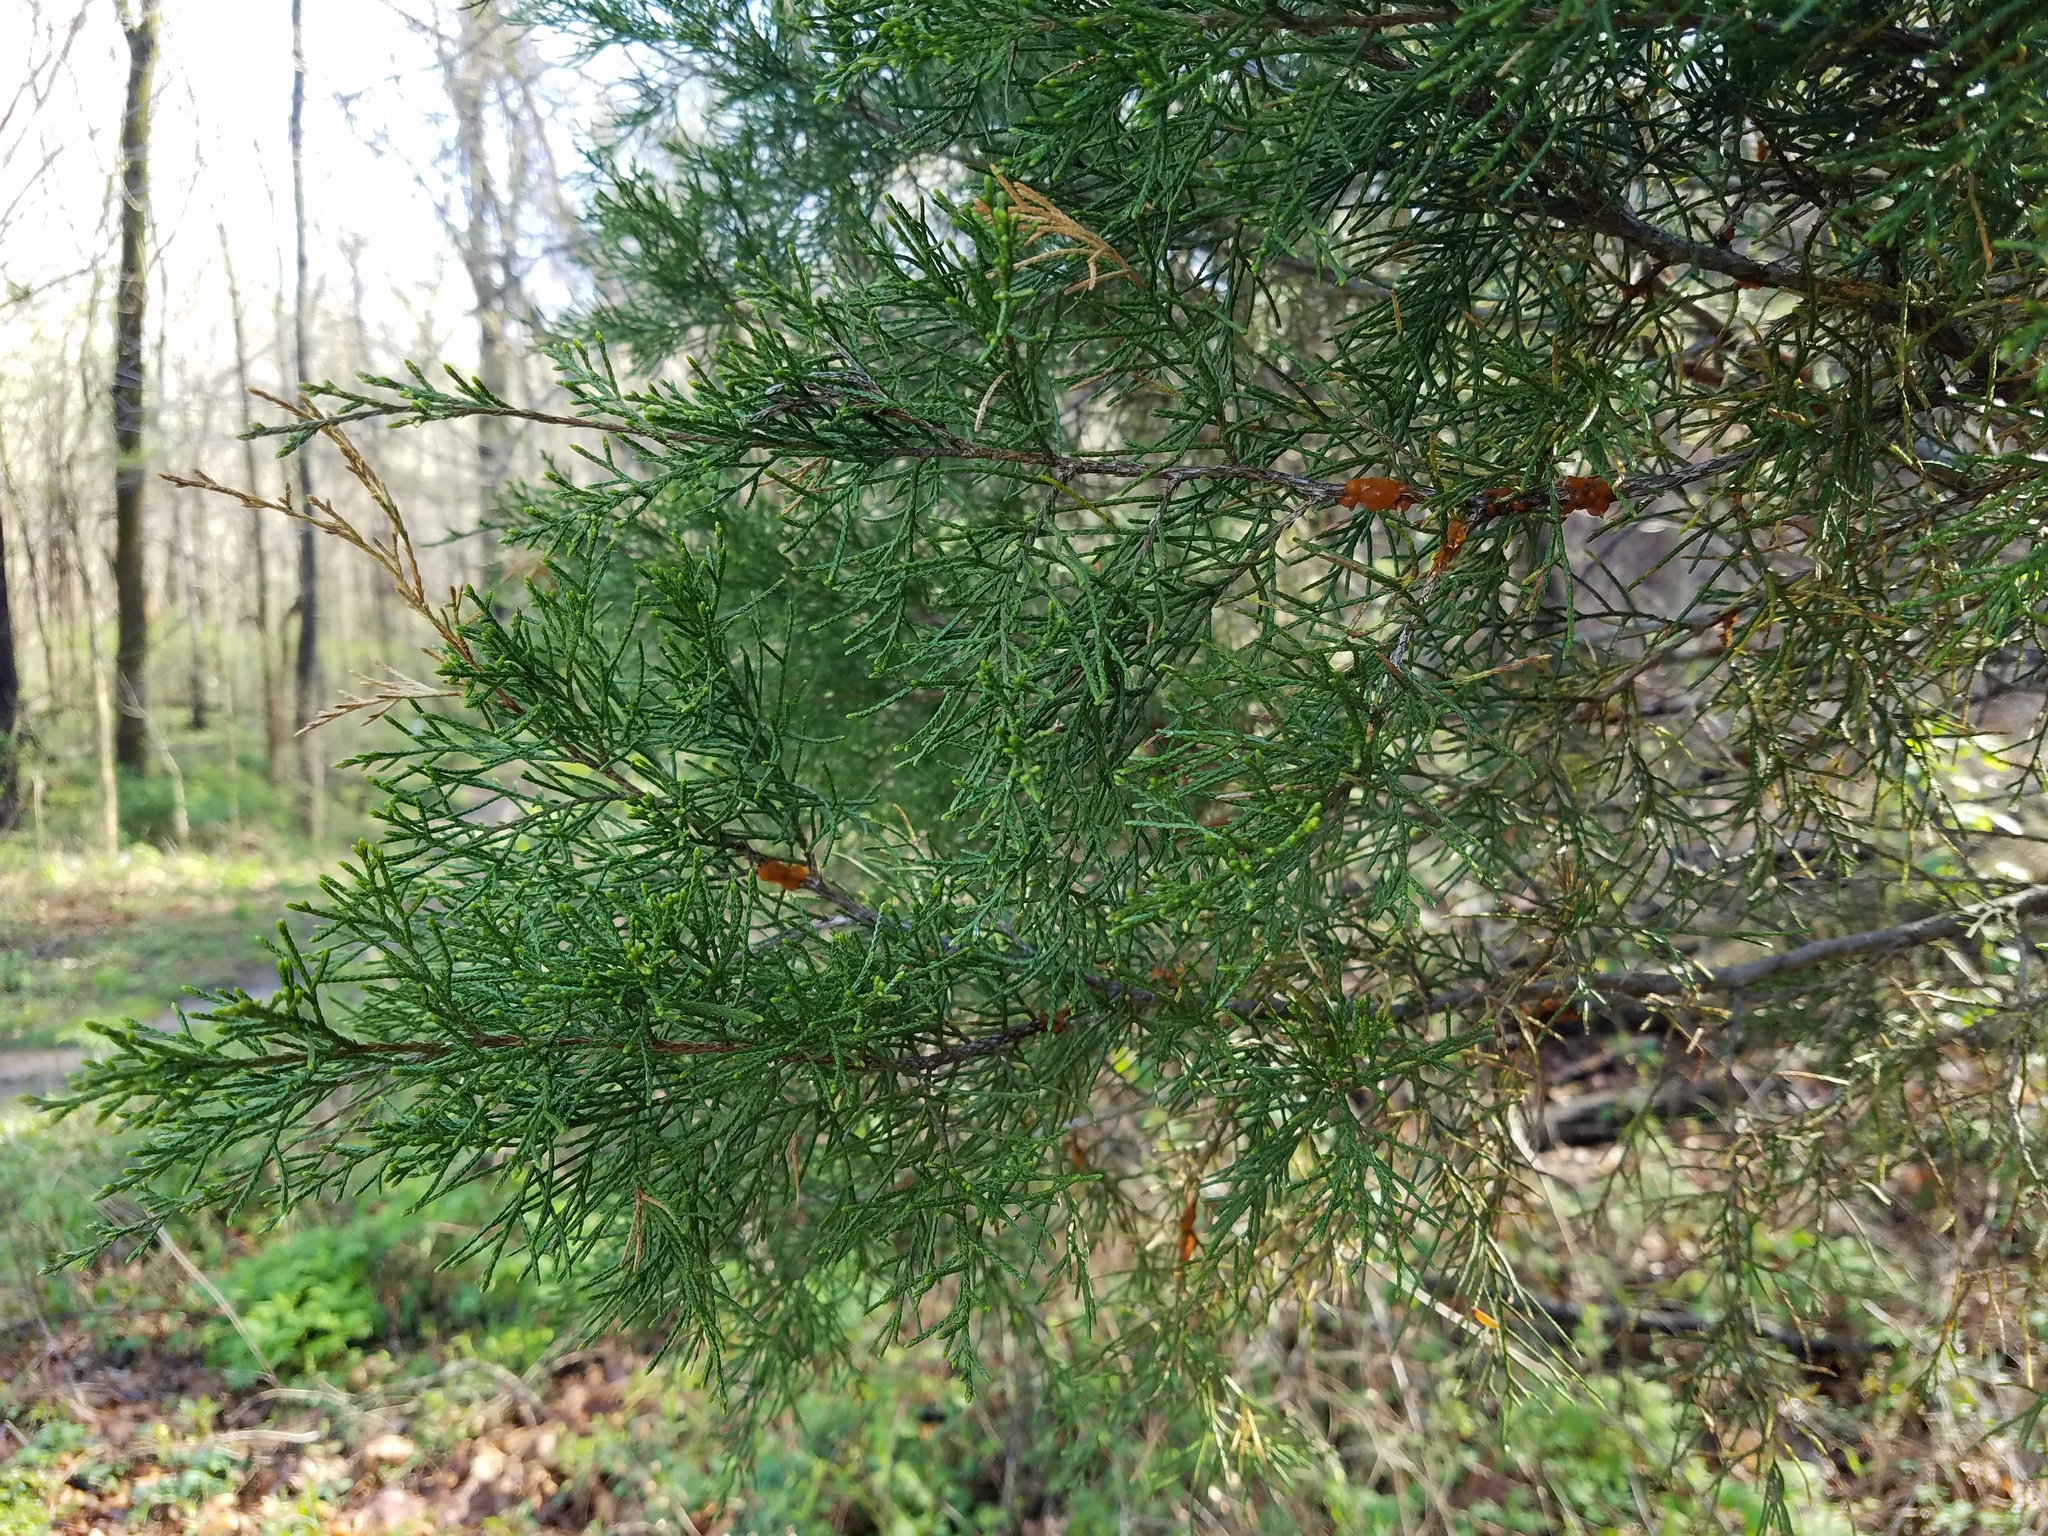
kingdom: Plantae
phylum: Tracheophyta
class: Pinopsida
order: Pinales
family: Cupressaceae
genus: Juniperus
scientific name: Juniperus virginiana
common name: Red juniper
